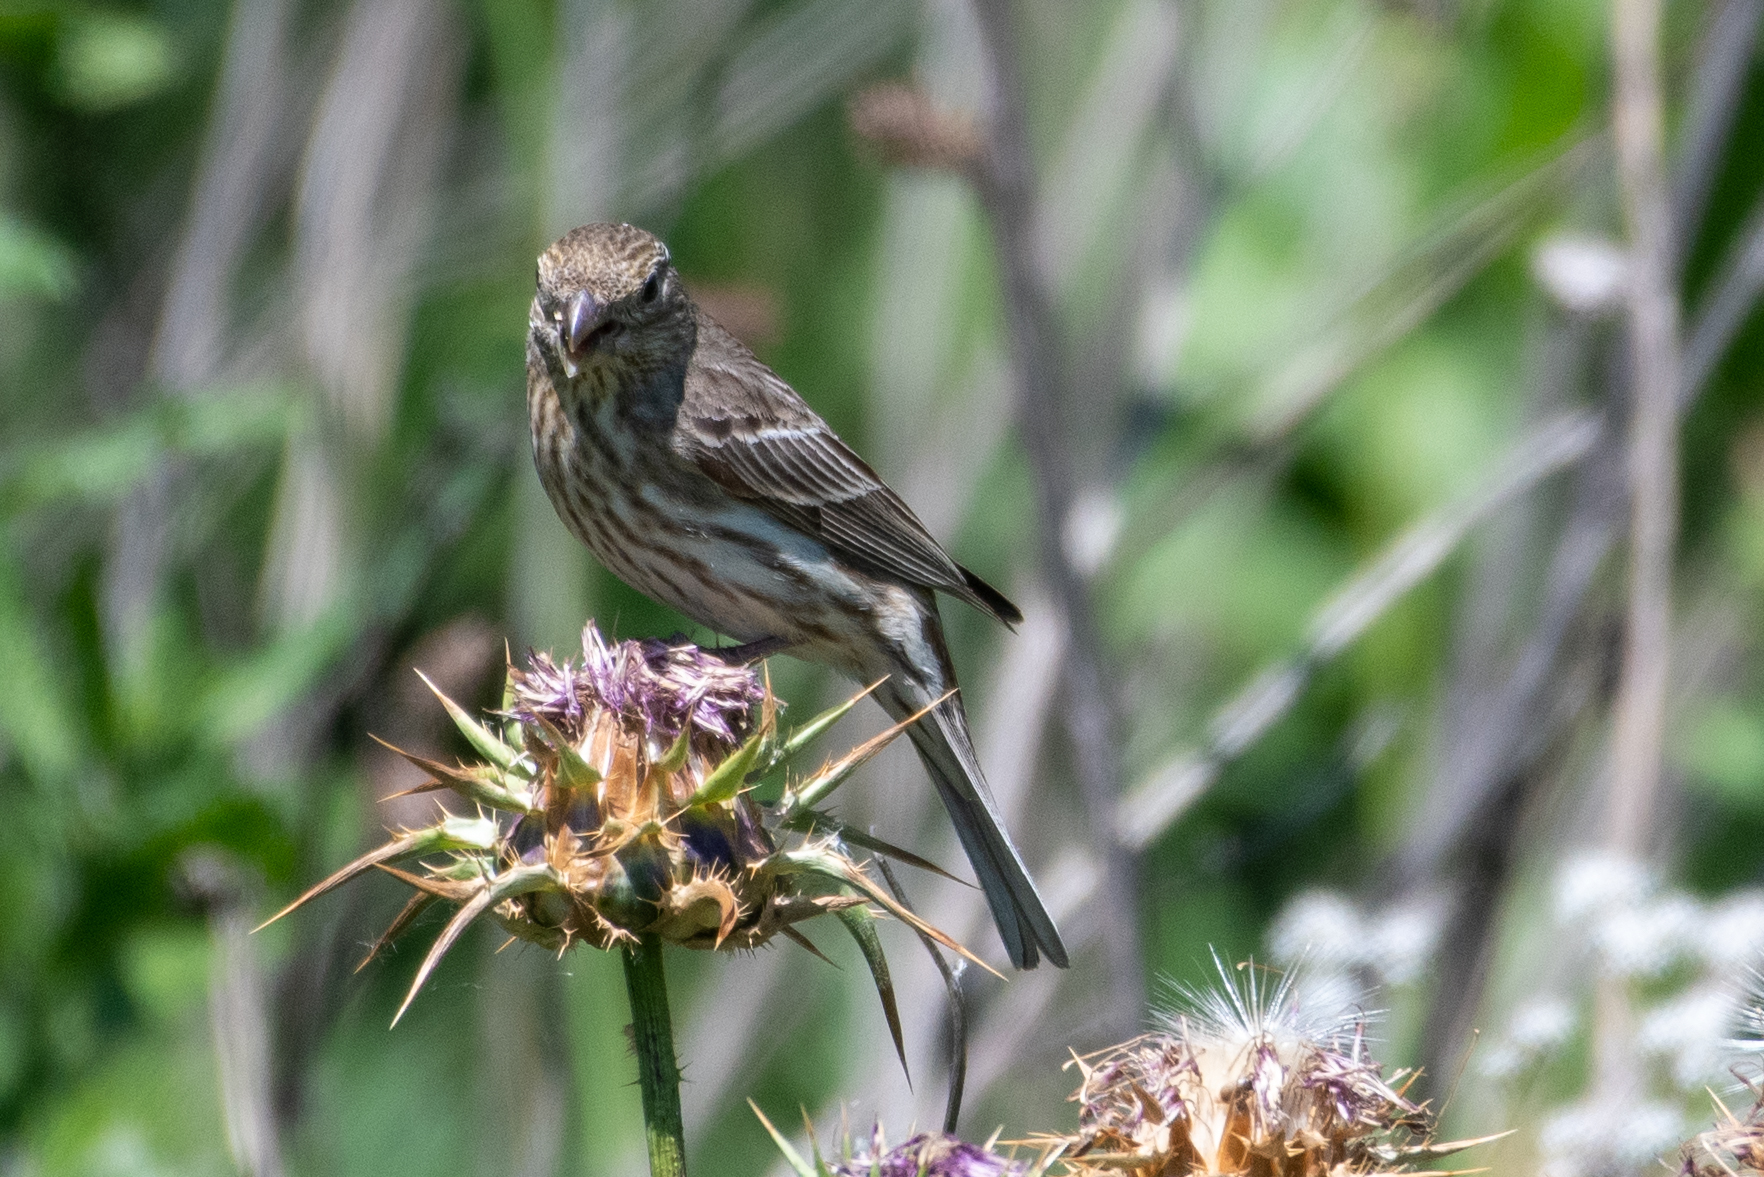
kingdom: Animalia
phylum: Chordata
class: Aves
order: Passeriformes
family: Fringillidae
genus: Haemorhous
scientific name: Haemorhous mexicanus
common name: House finch
